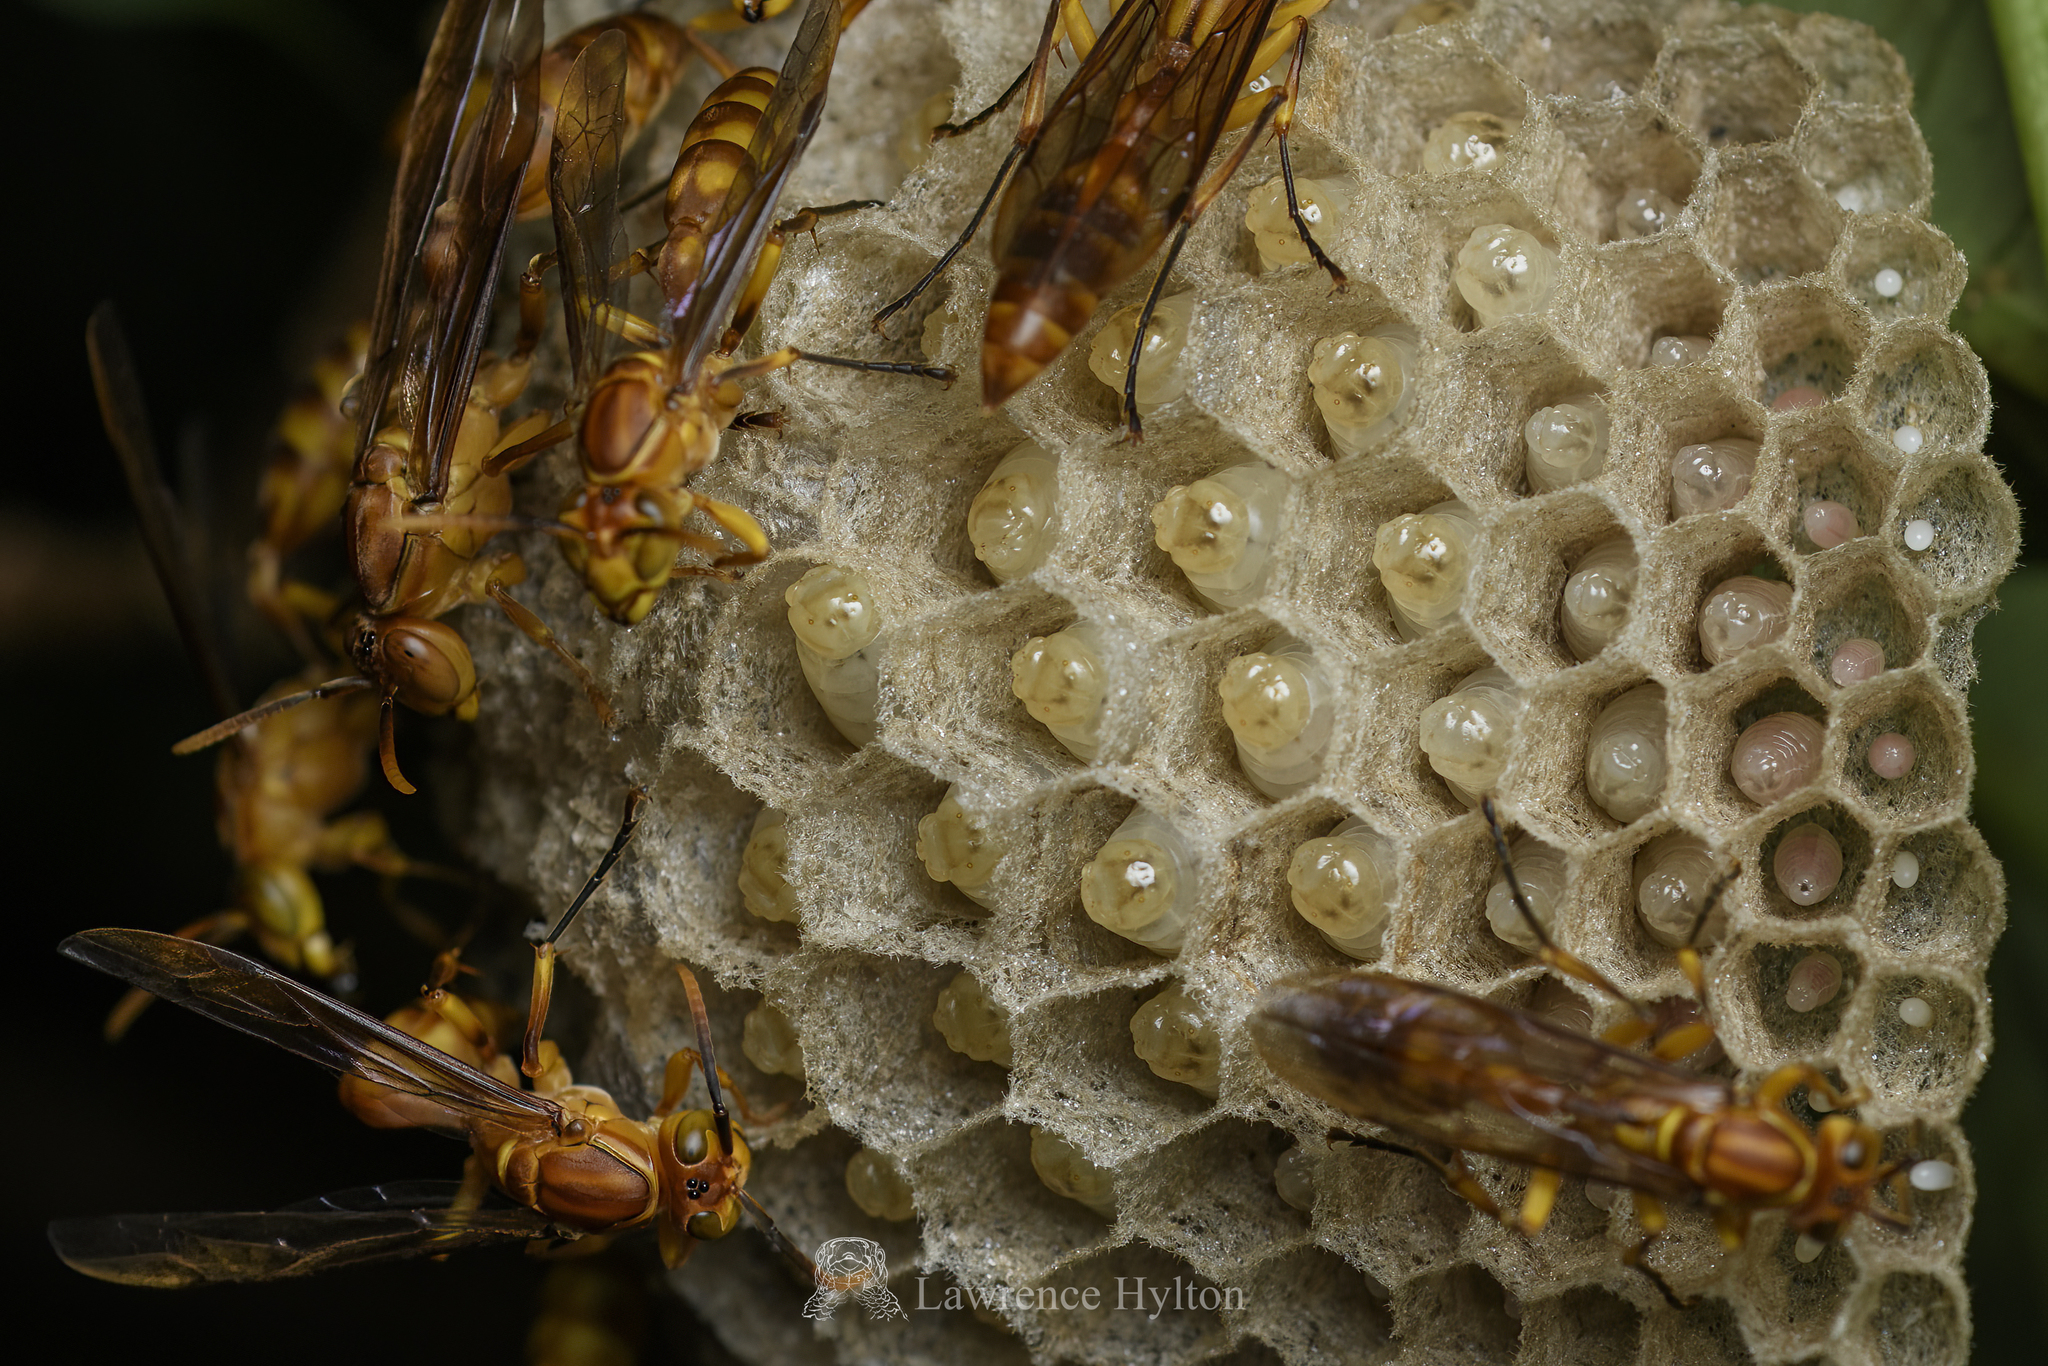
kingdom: Animalia
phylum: Arthropoda
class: Insecta
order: Hymenoptera
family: Vespidae
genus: Parapolybia
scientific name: Parapolybia indica
